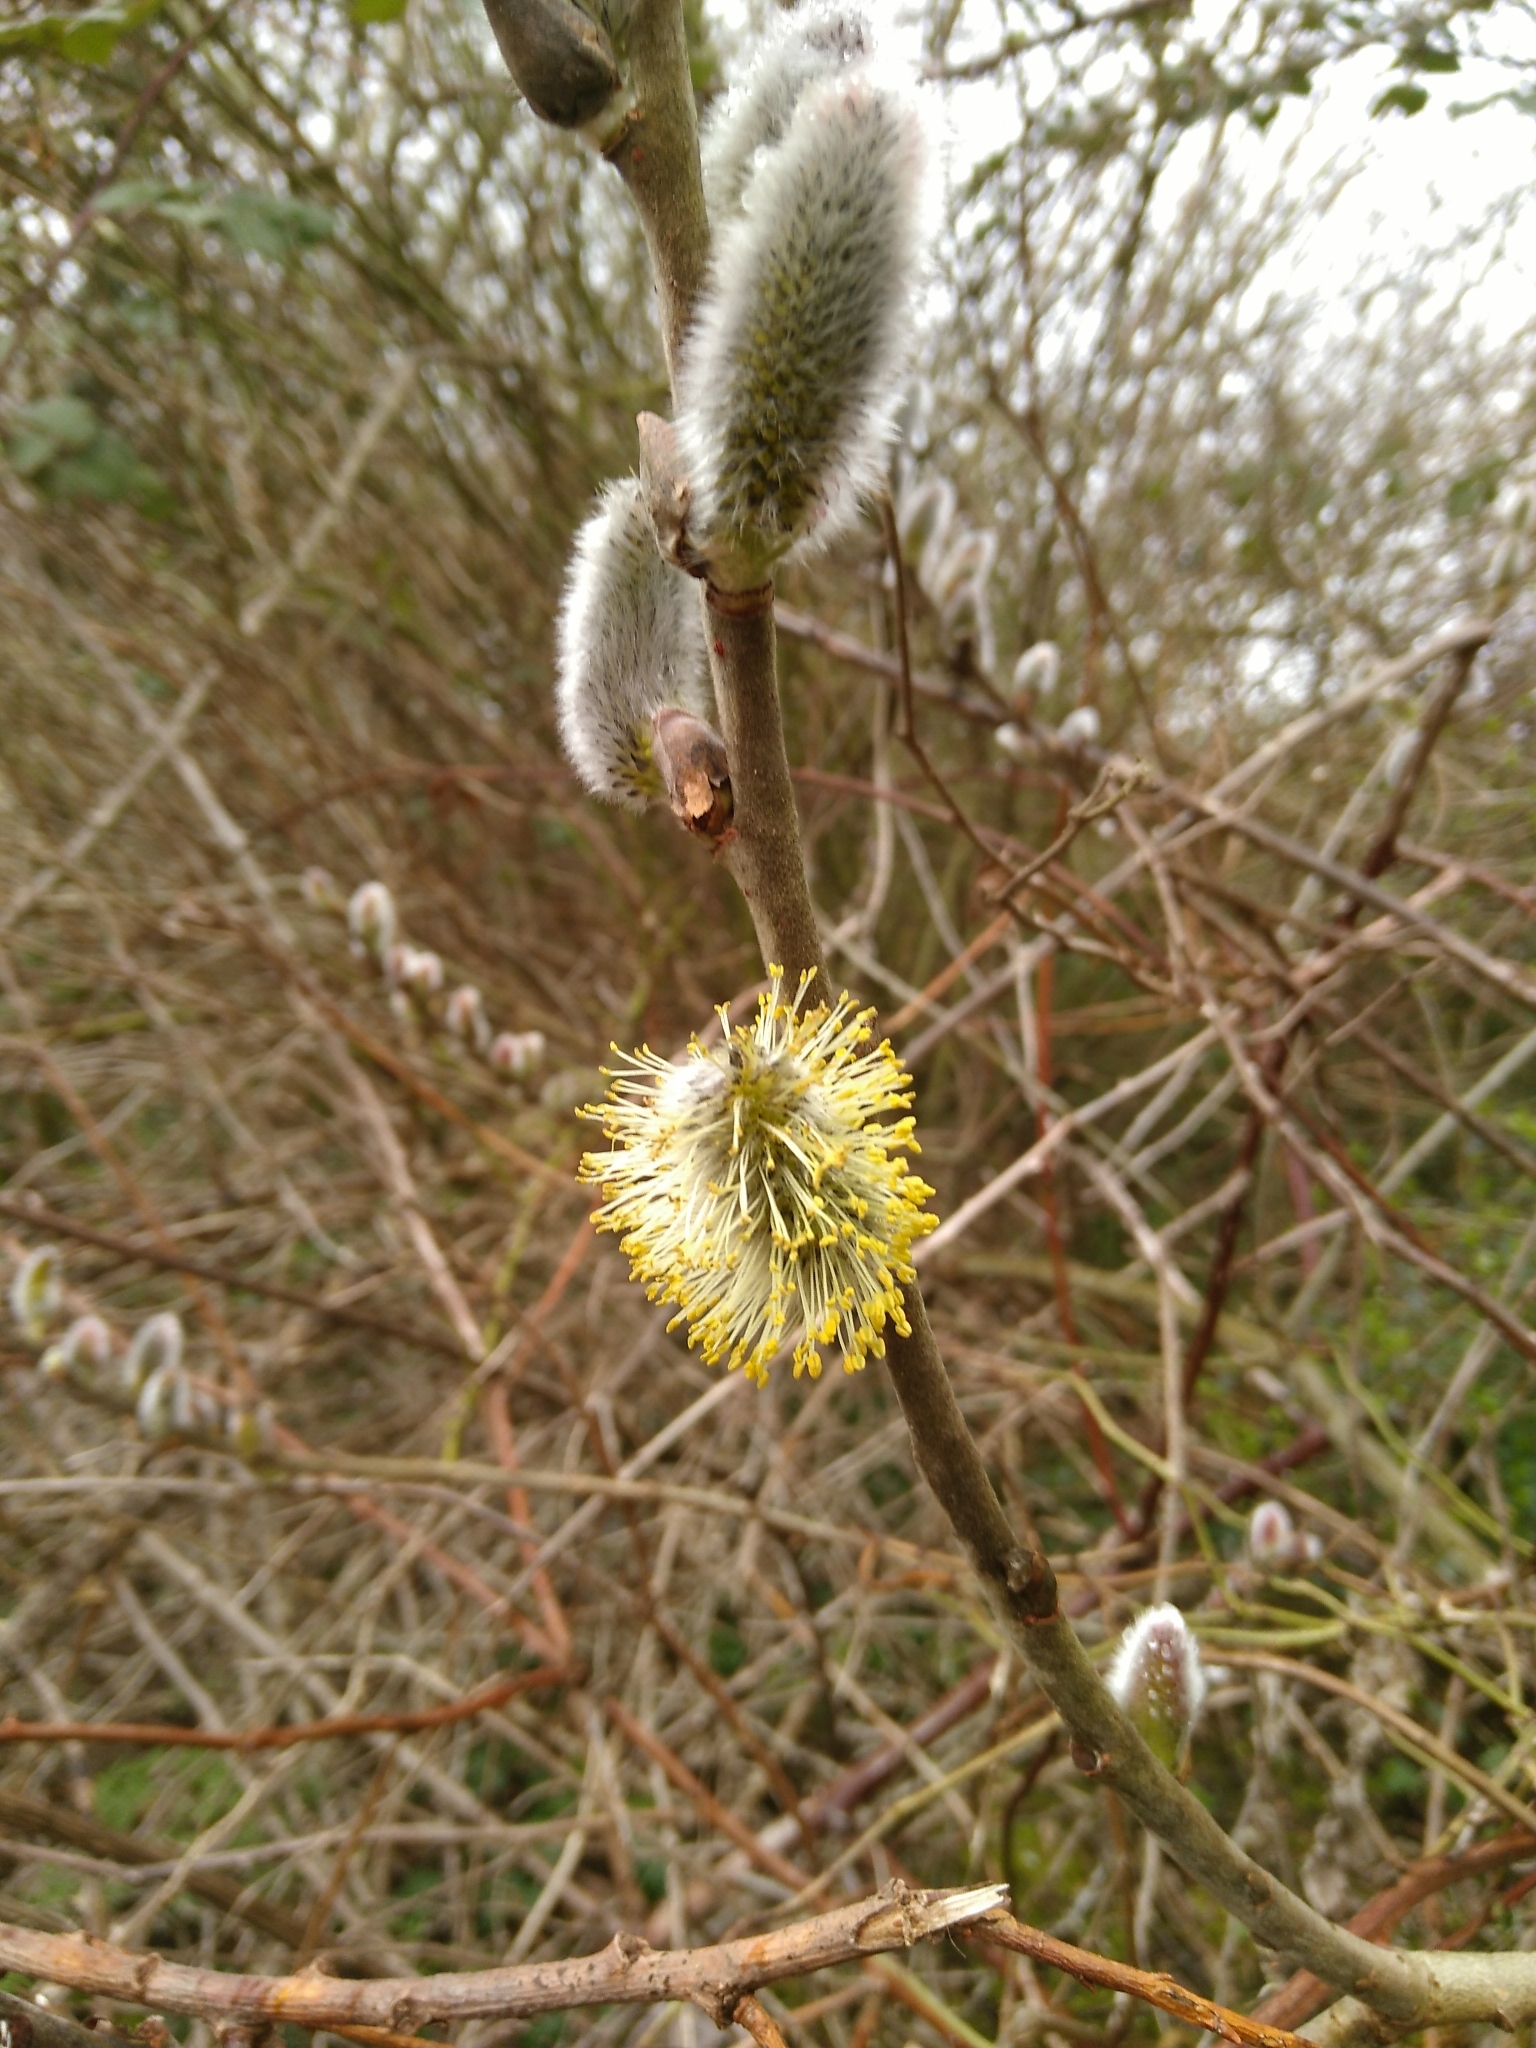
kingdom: Plantae
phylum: Tracheophyta
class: Magnoliopsida
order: Malpighiales
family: Salicaceae
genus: Salix
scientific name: Salix caprea
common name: Goat willow
